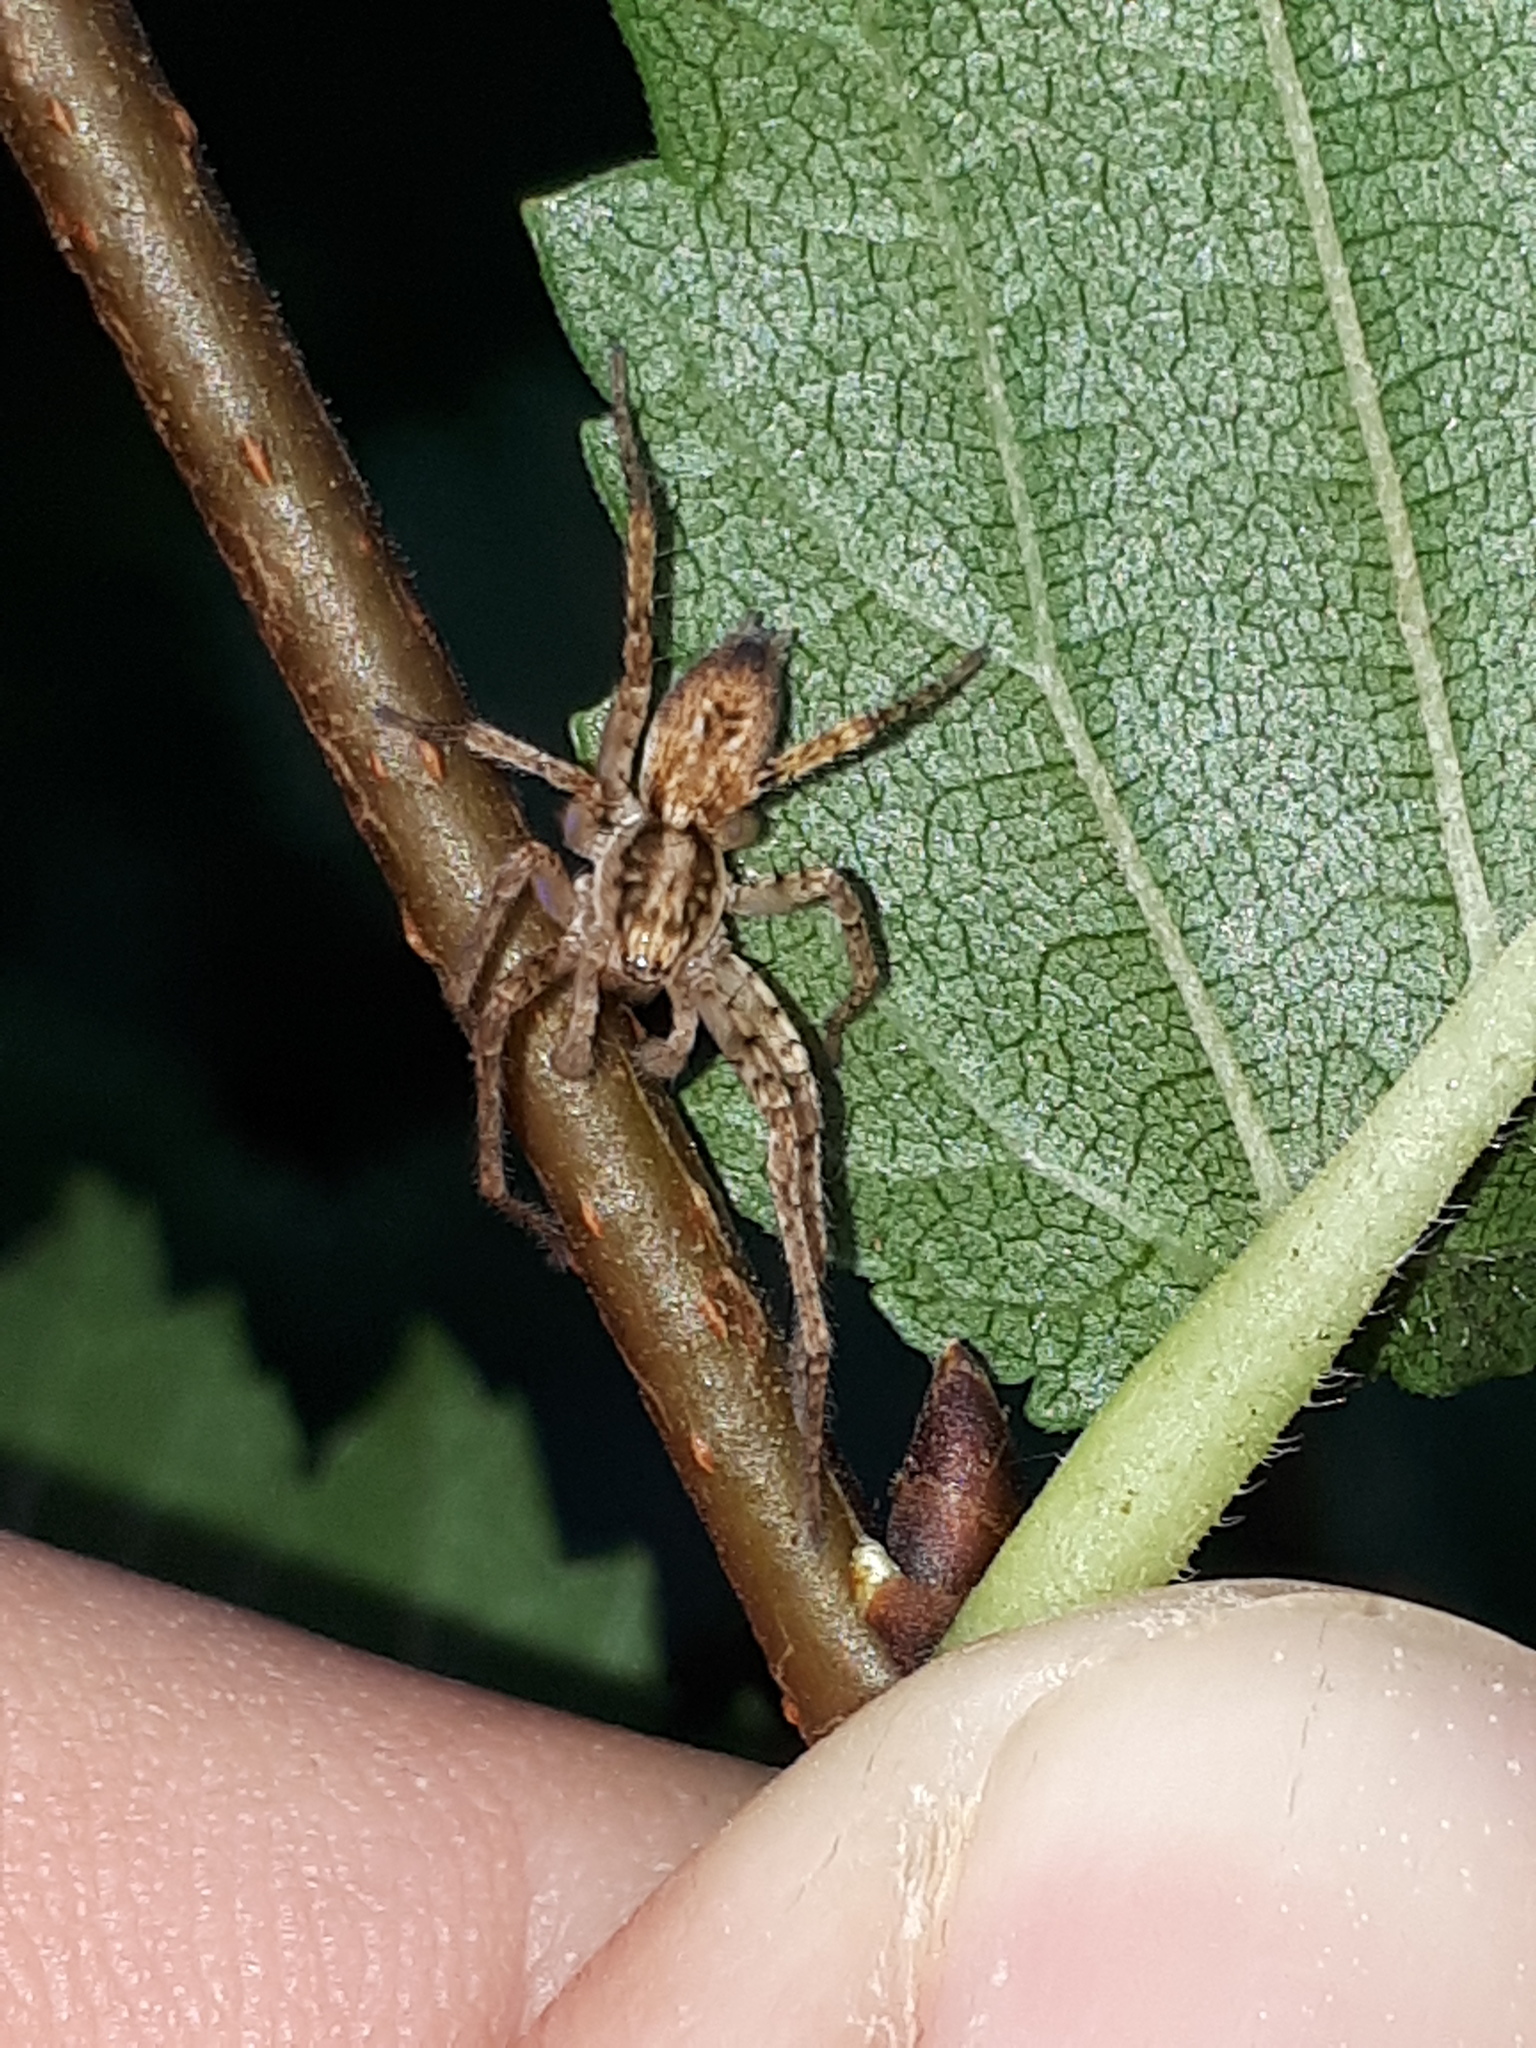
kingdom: Animalia
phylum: Arthropoda
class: Arachnida
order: Araneae
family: Anyphaenidae
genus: Anyphaena
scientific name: Anyphaena accentuata
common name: Buzzing spider
